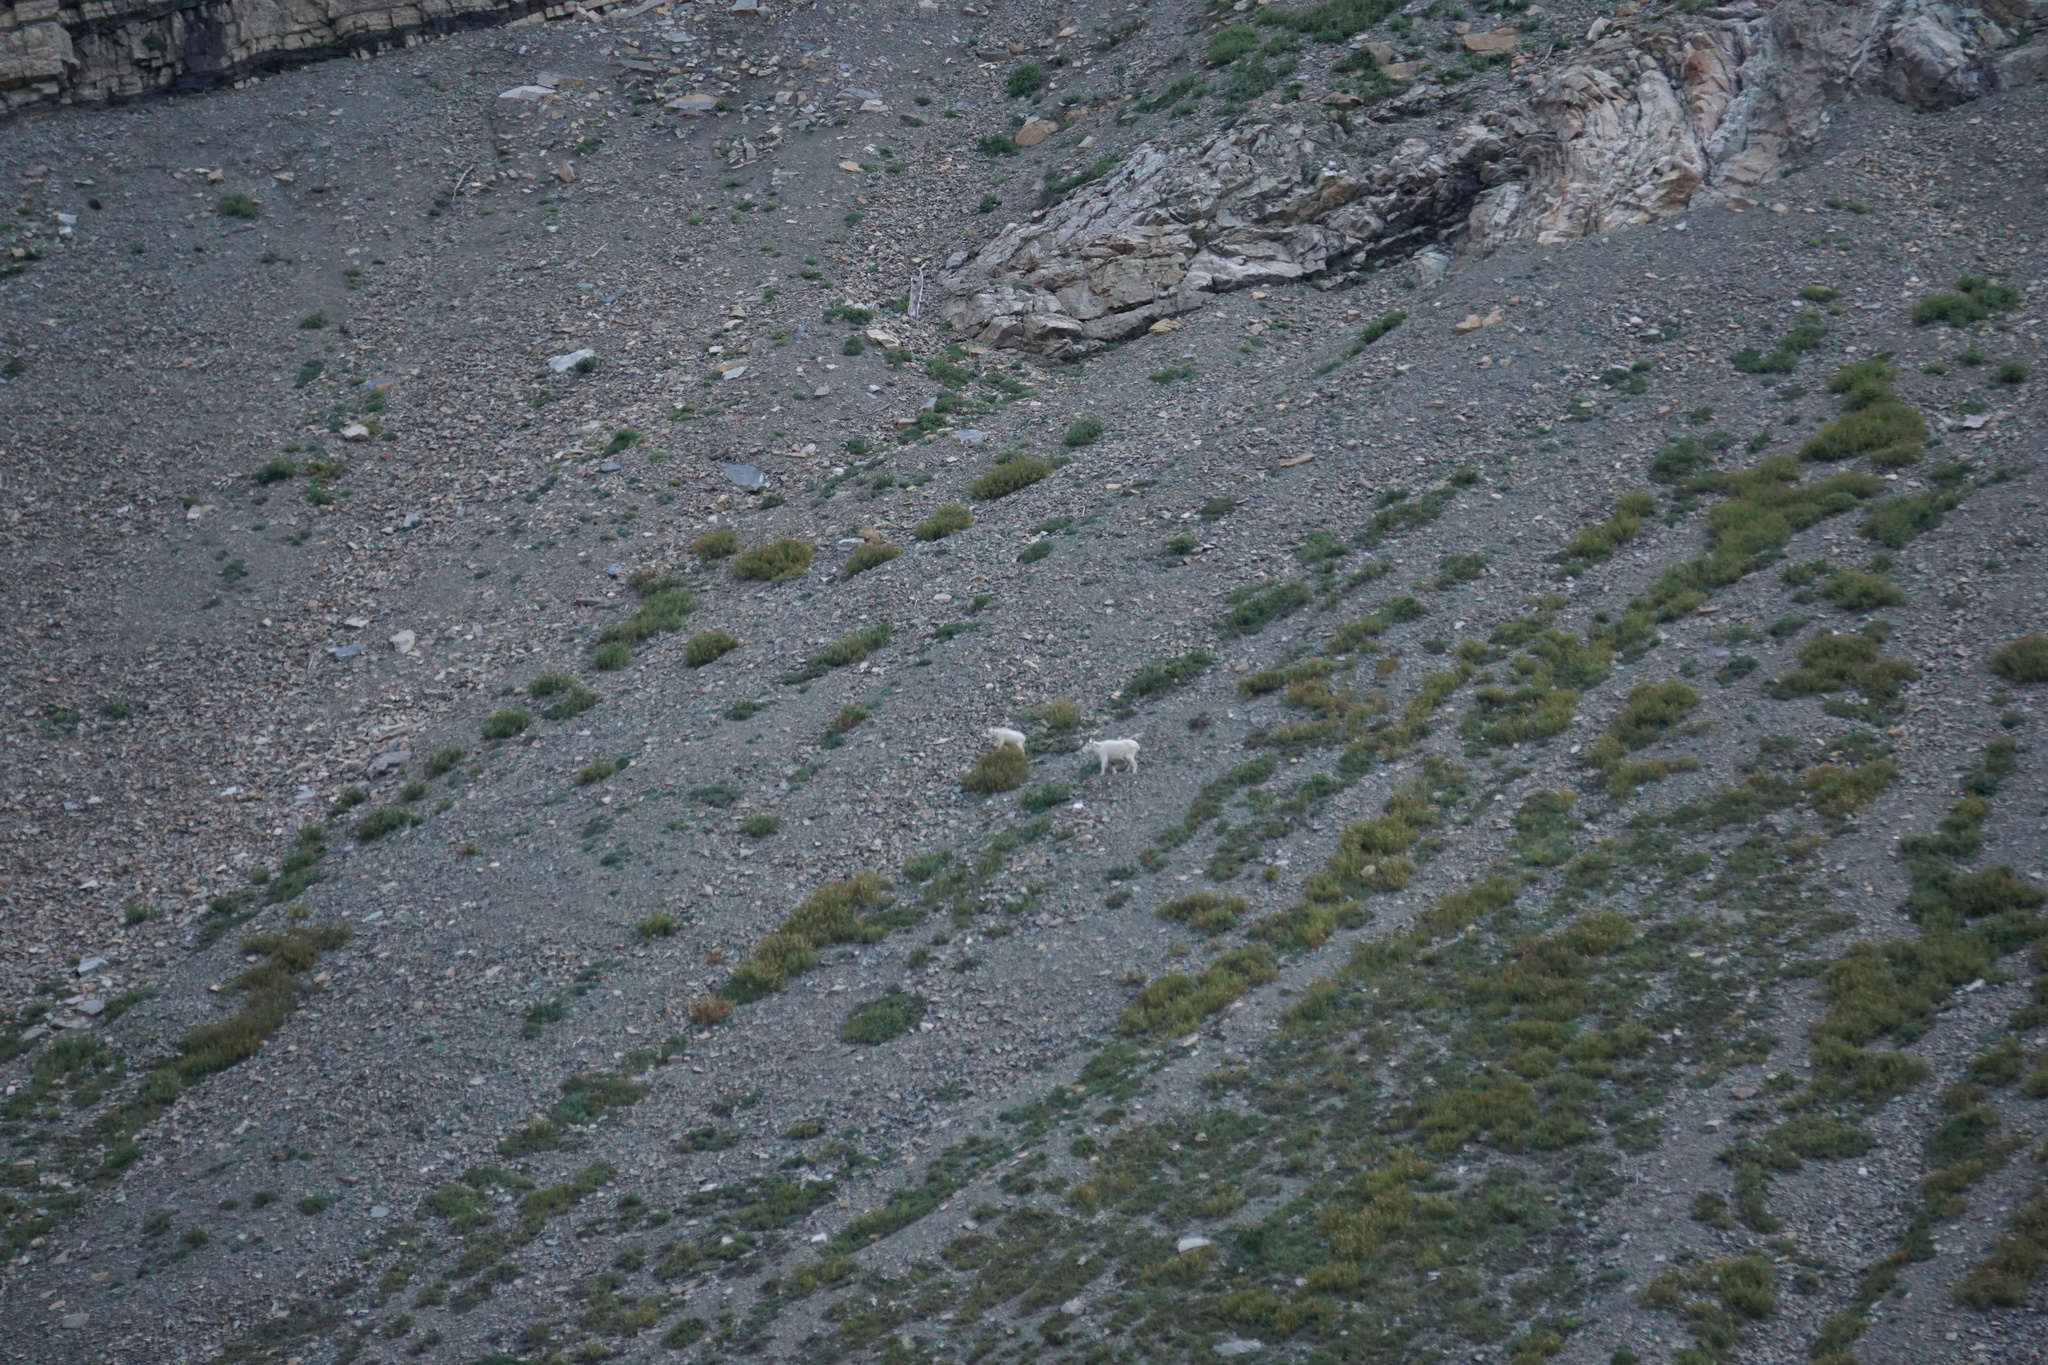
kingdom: Animalia
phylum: Chordata
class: Mammalia
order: Artiodactyla
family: Bovidae
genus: Oreamnos
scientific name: Oreamnos americanus
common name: Mountain goat
